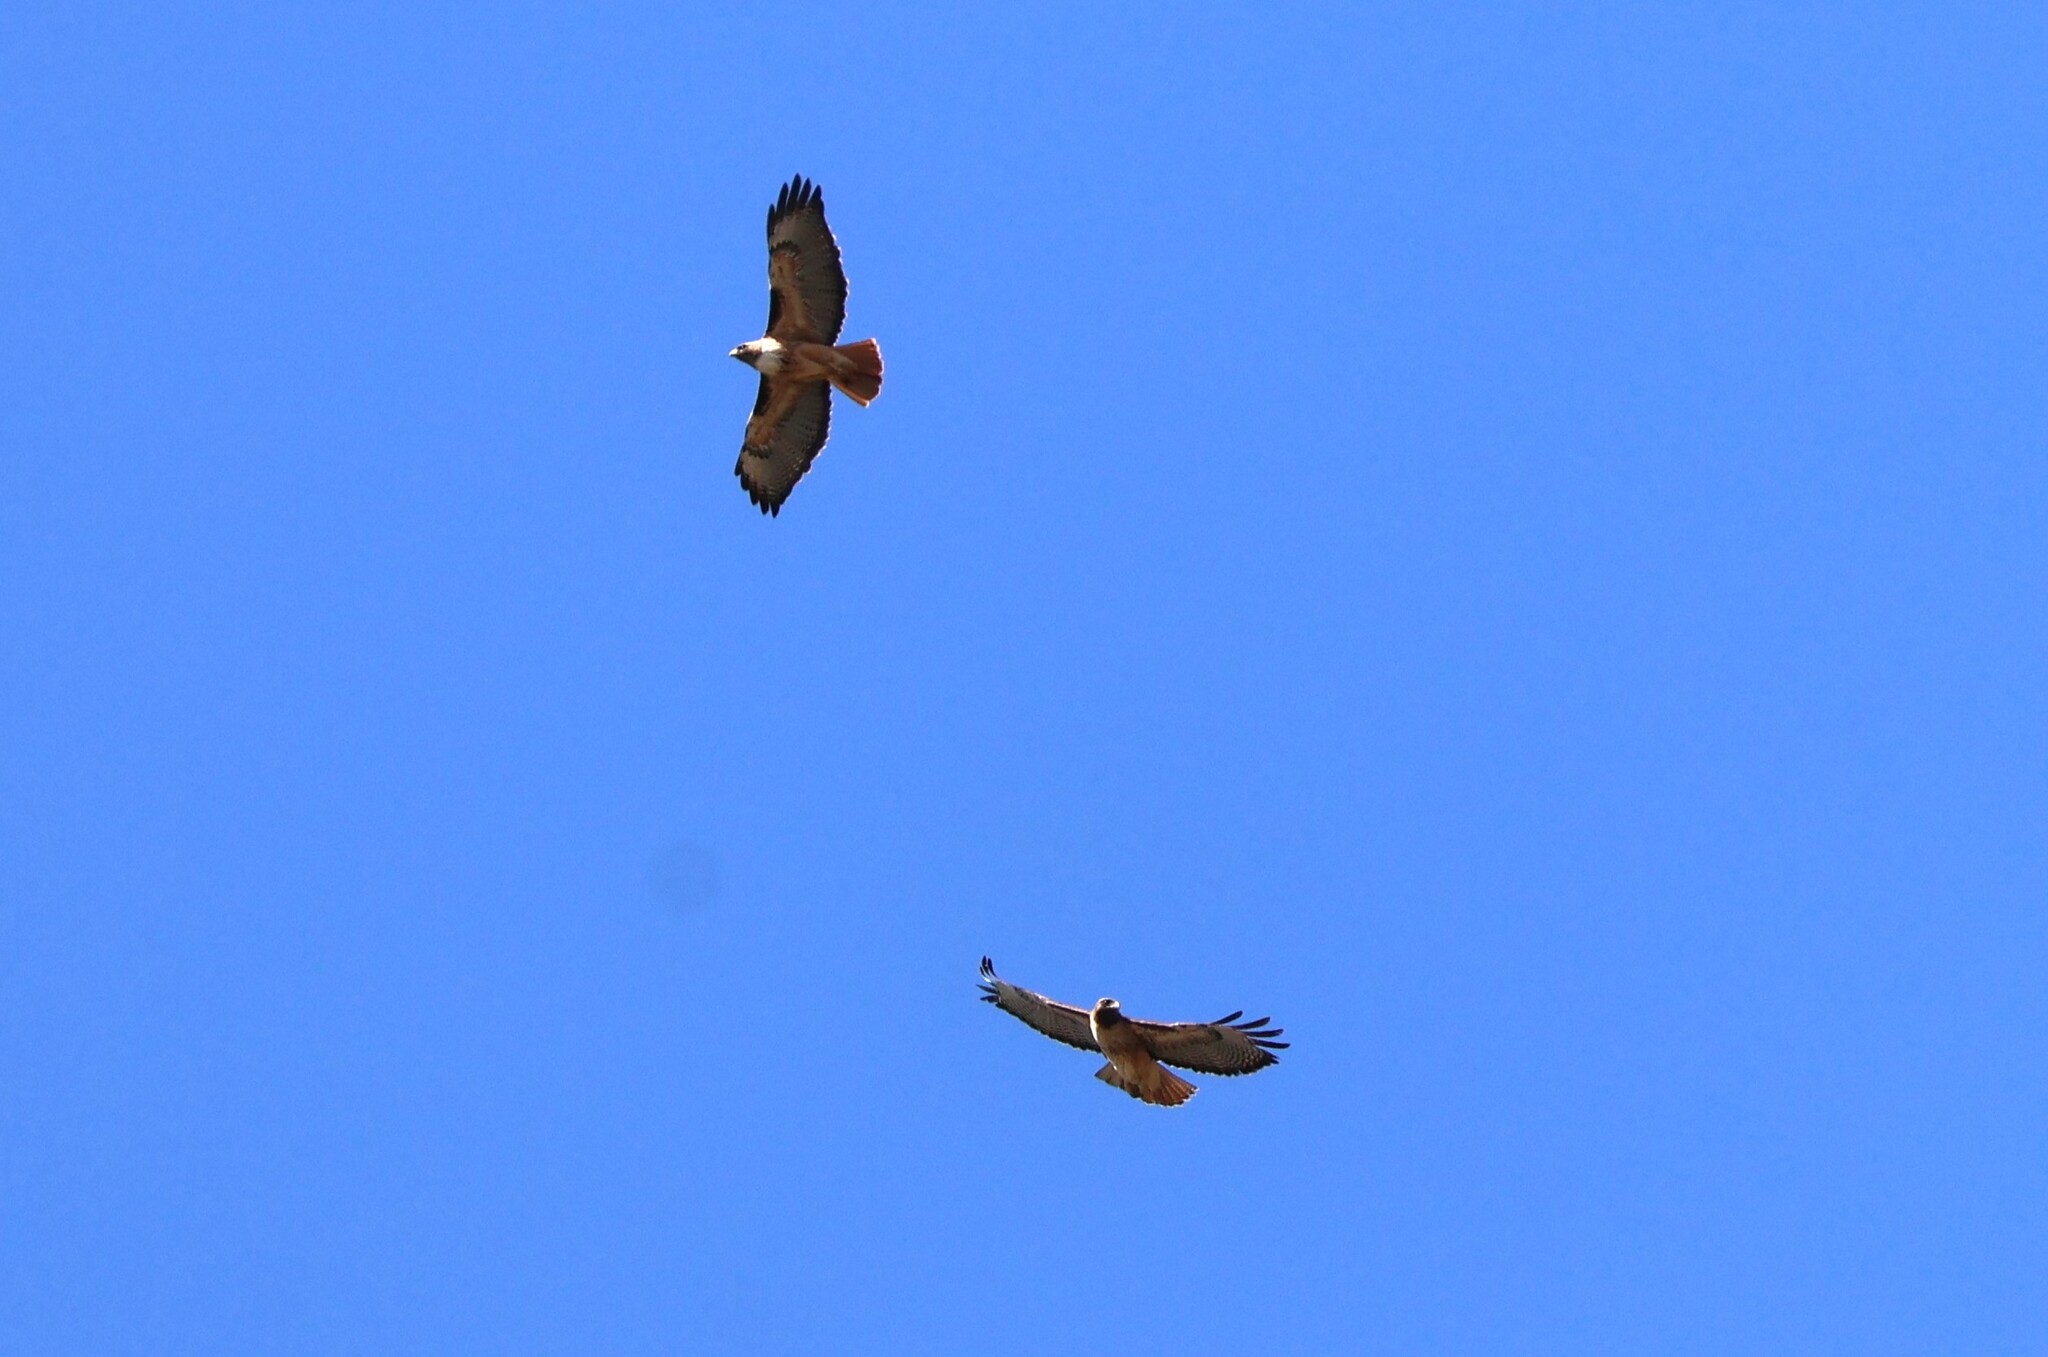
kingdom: Animalia
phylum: Chordata
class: Aves
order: Accipitriformes
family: Accipitridae
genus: Buteo
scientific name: Buteo jamaicensis
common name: Red-tailed hawk
